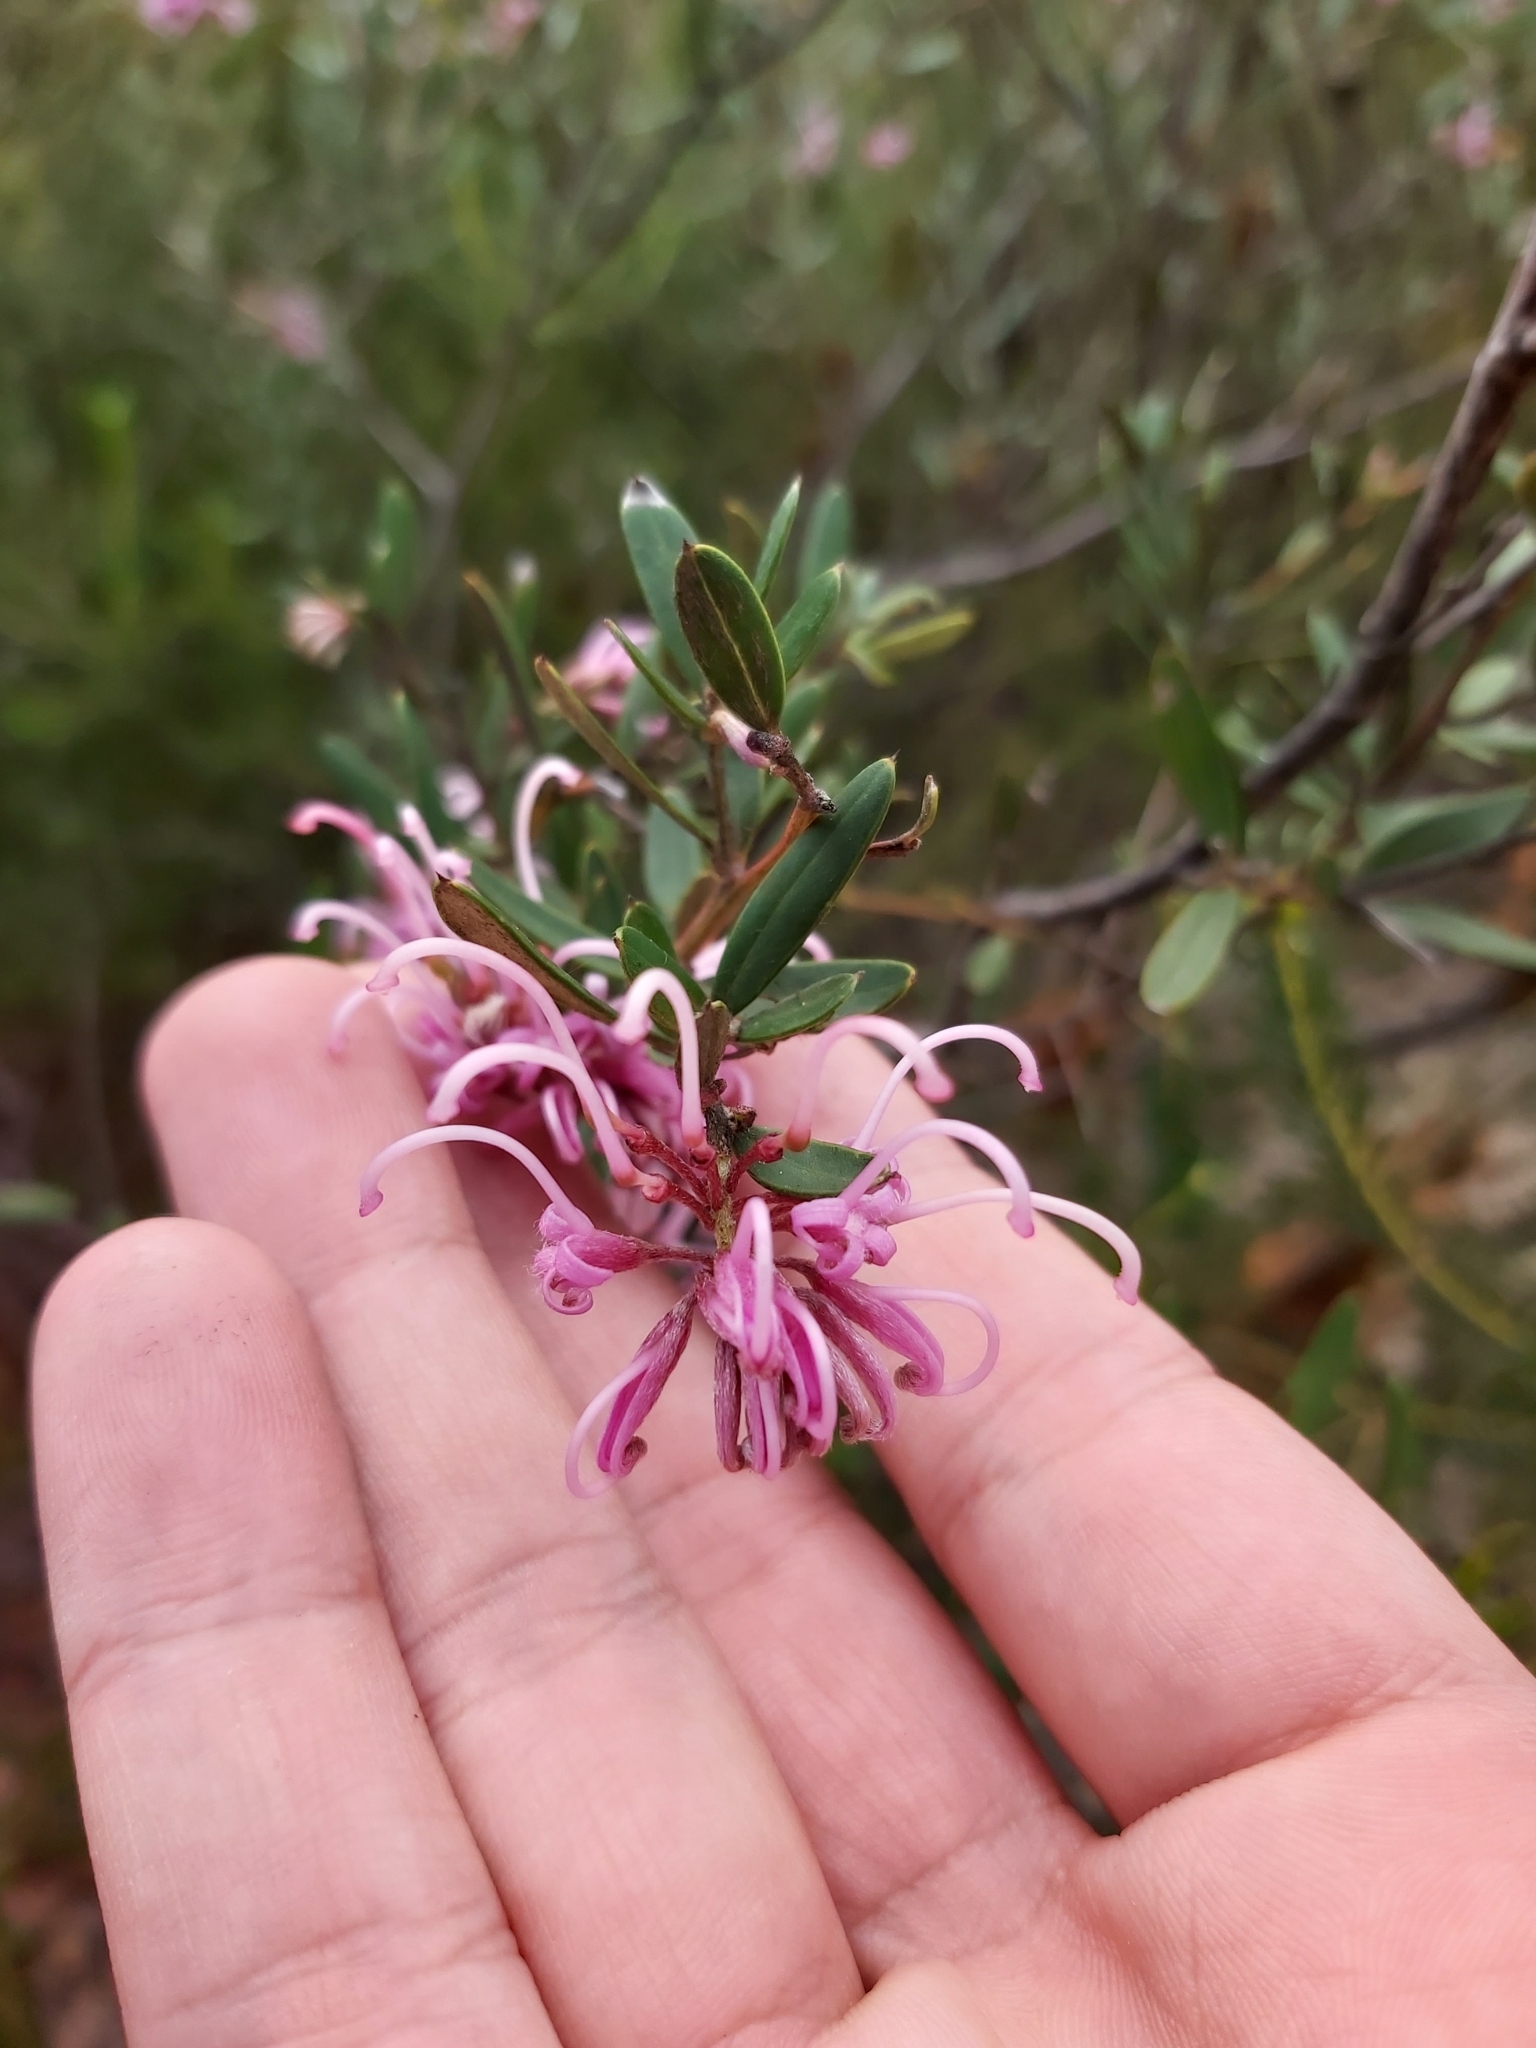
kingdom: Plantae
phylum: Tracheophyta
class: Magnoliopsida
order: Proteales
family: Proteaceae
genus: Grevillea
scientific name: Grevillea sericea
